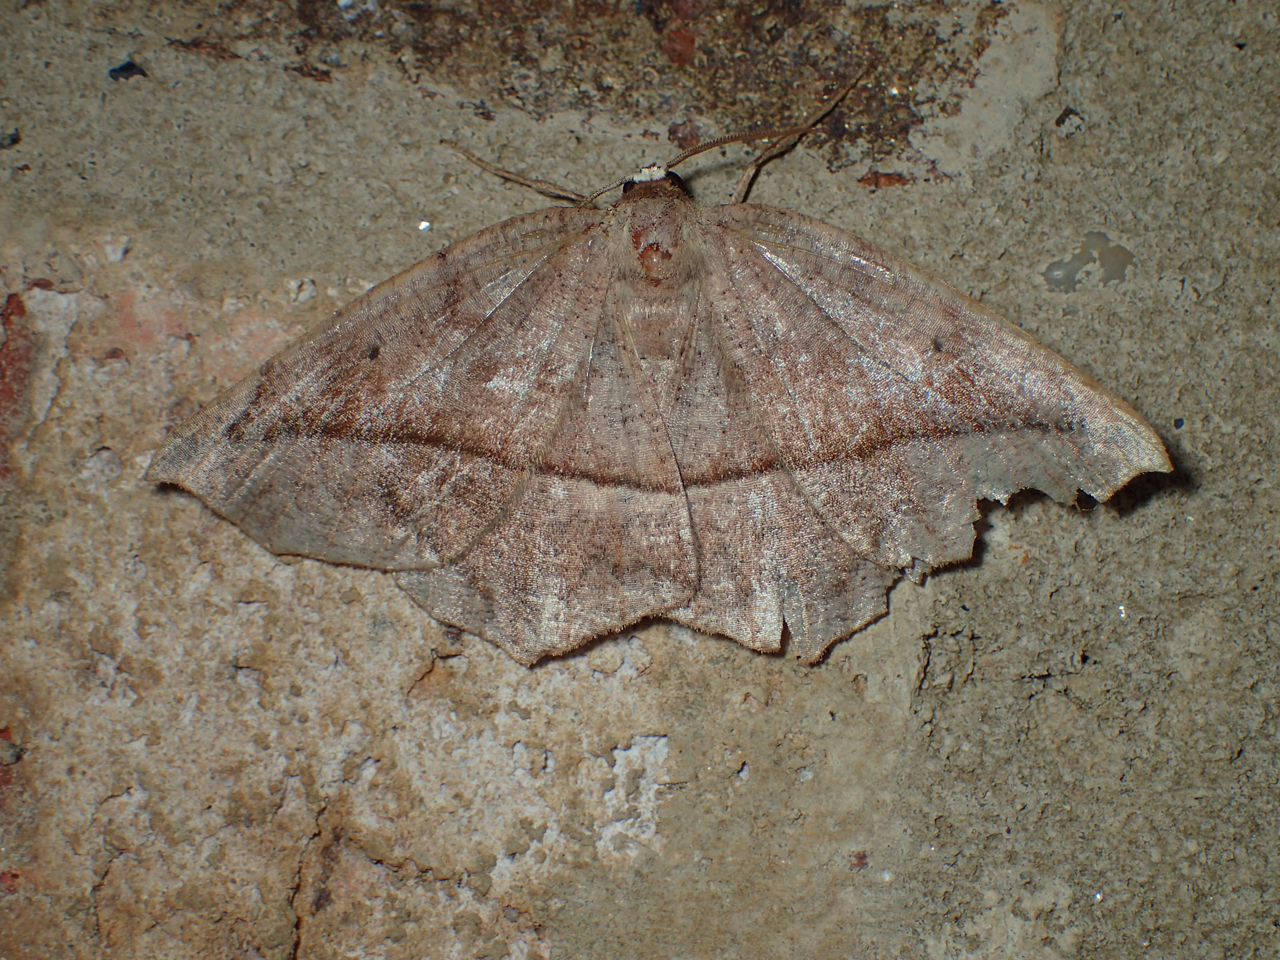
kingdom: Animalia
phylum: Arthropoda
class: Insecta
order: Lepidoptera
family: Geometridae
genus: Eutrapela
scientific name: Eutrapela clemataria
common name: Curved-toothed geometer
